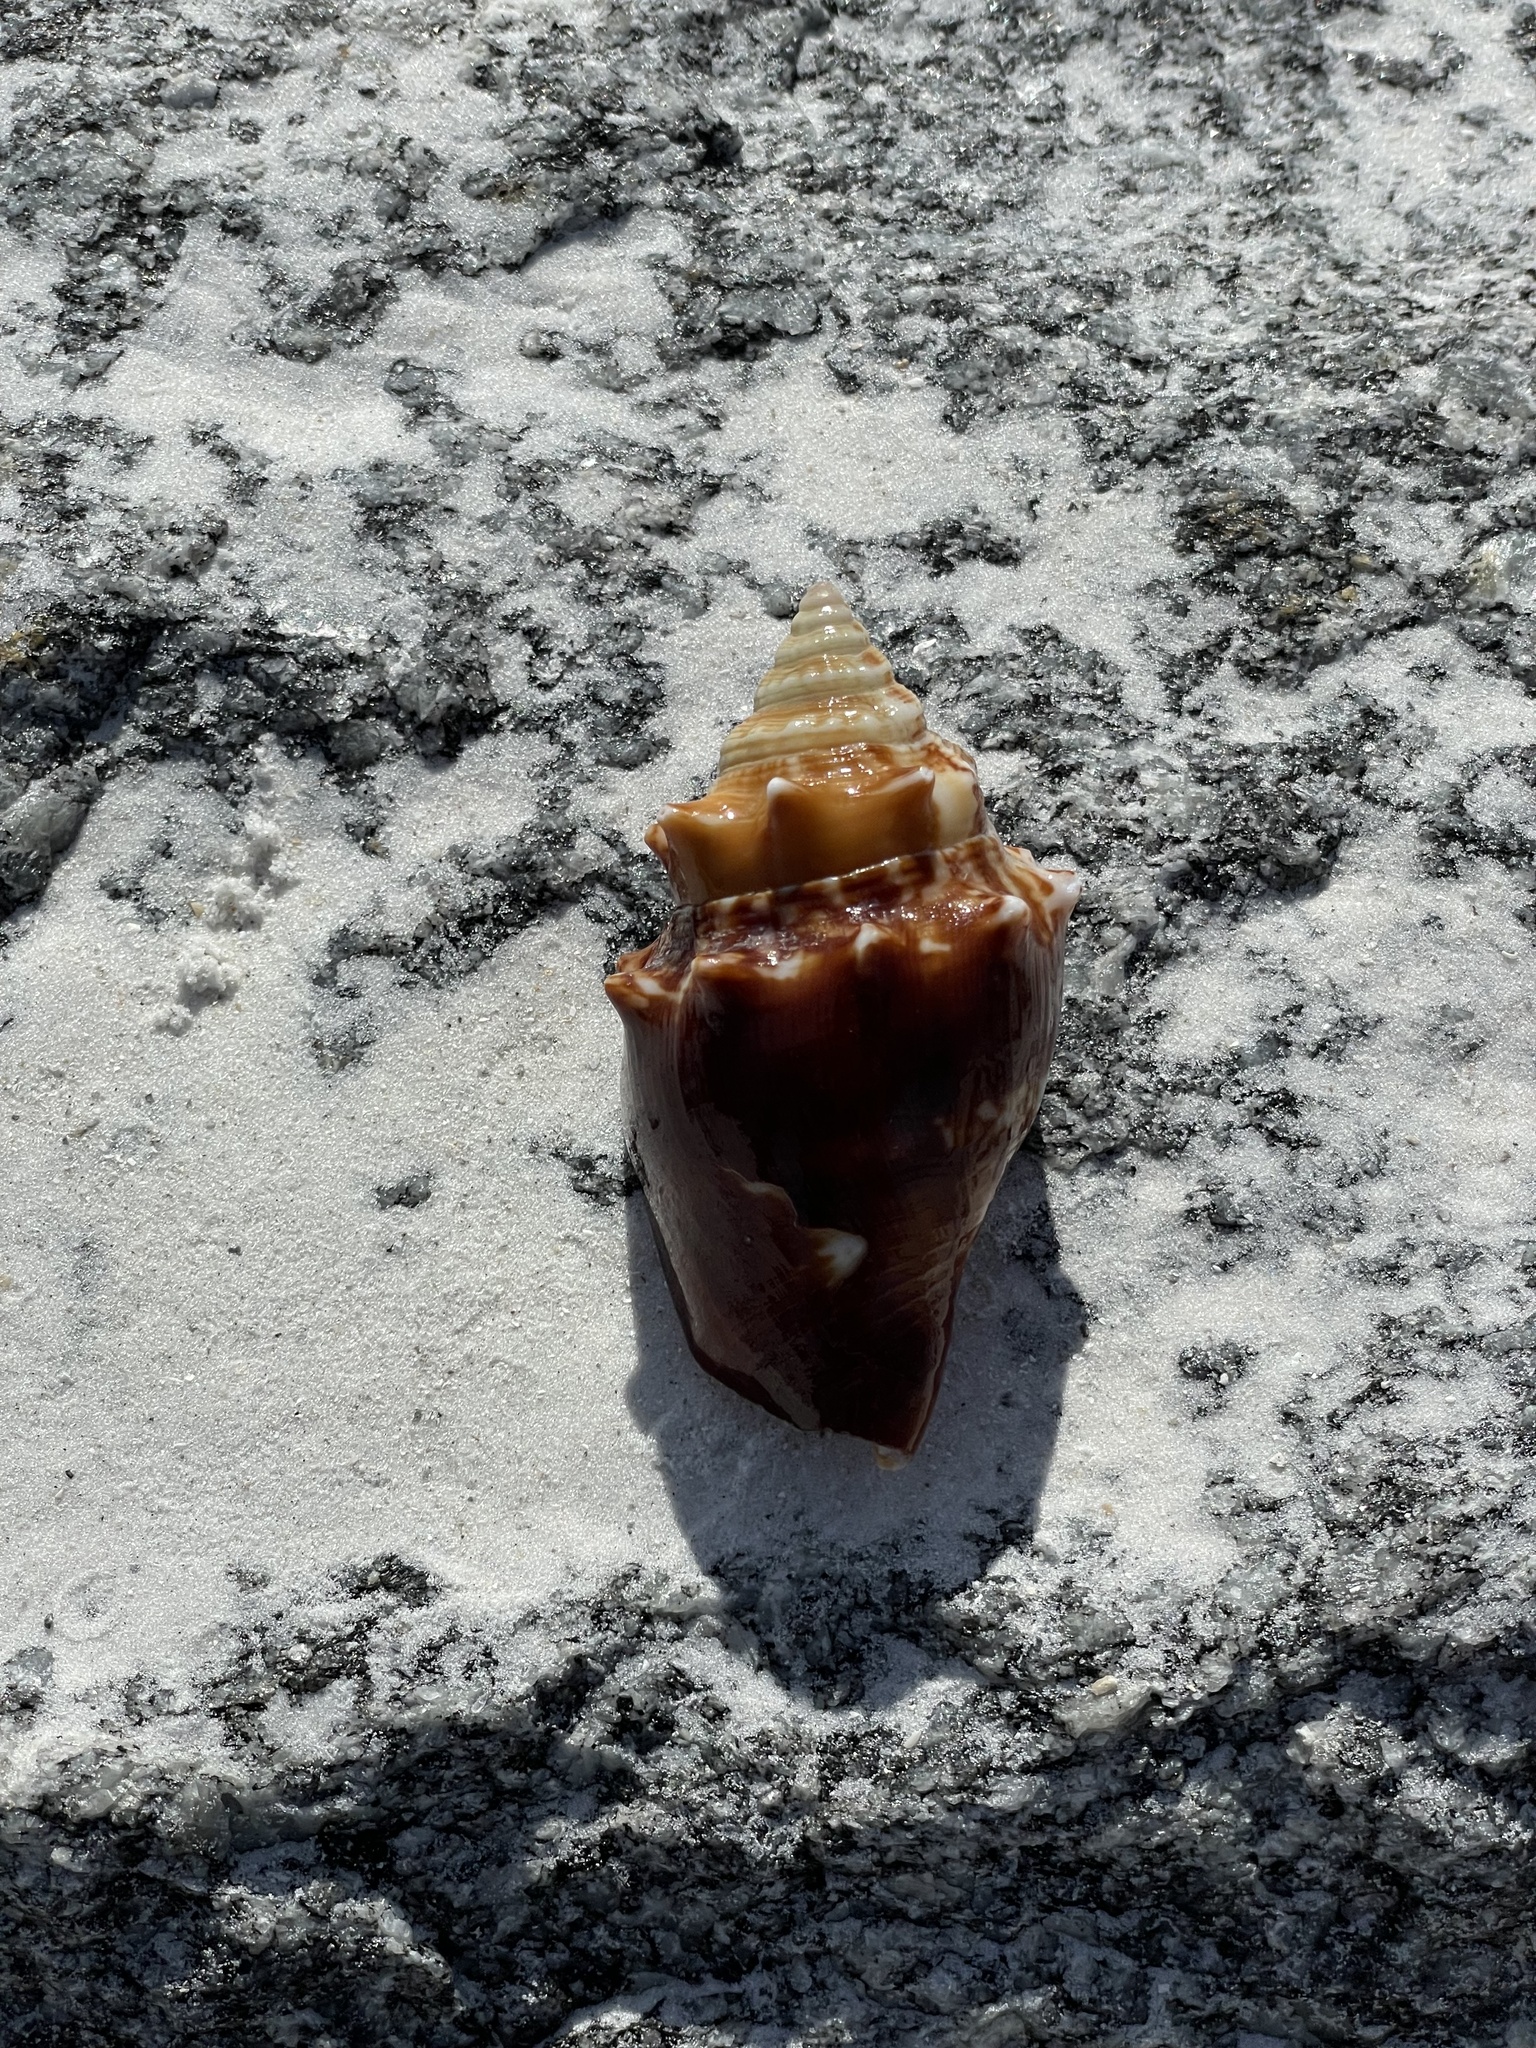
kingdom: Animalia
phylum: Mollusca
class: Gastropoda
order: Littorinimorpha
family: Strombidae
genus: Strombus
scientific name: Strombus alatus
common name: Florida fighting conch
